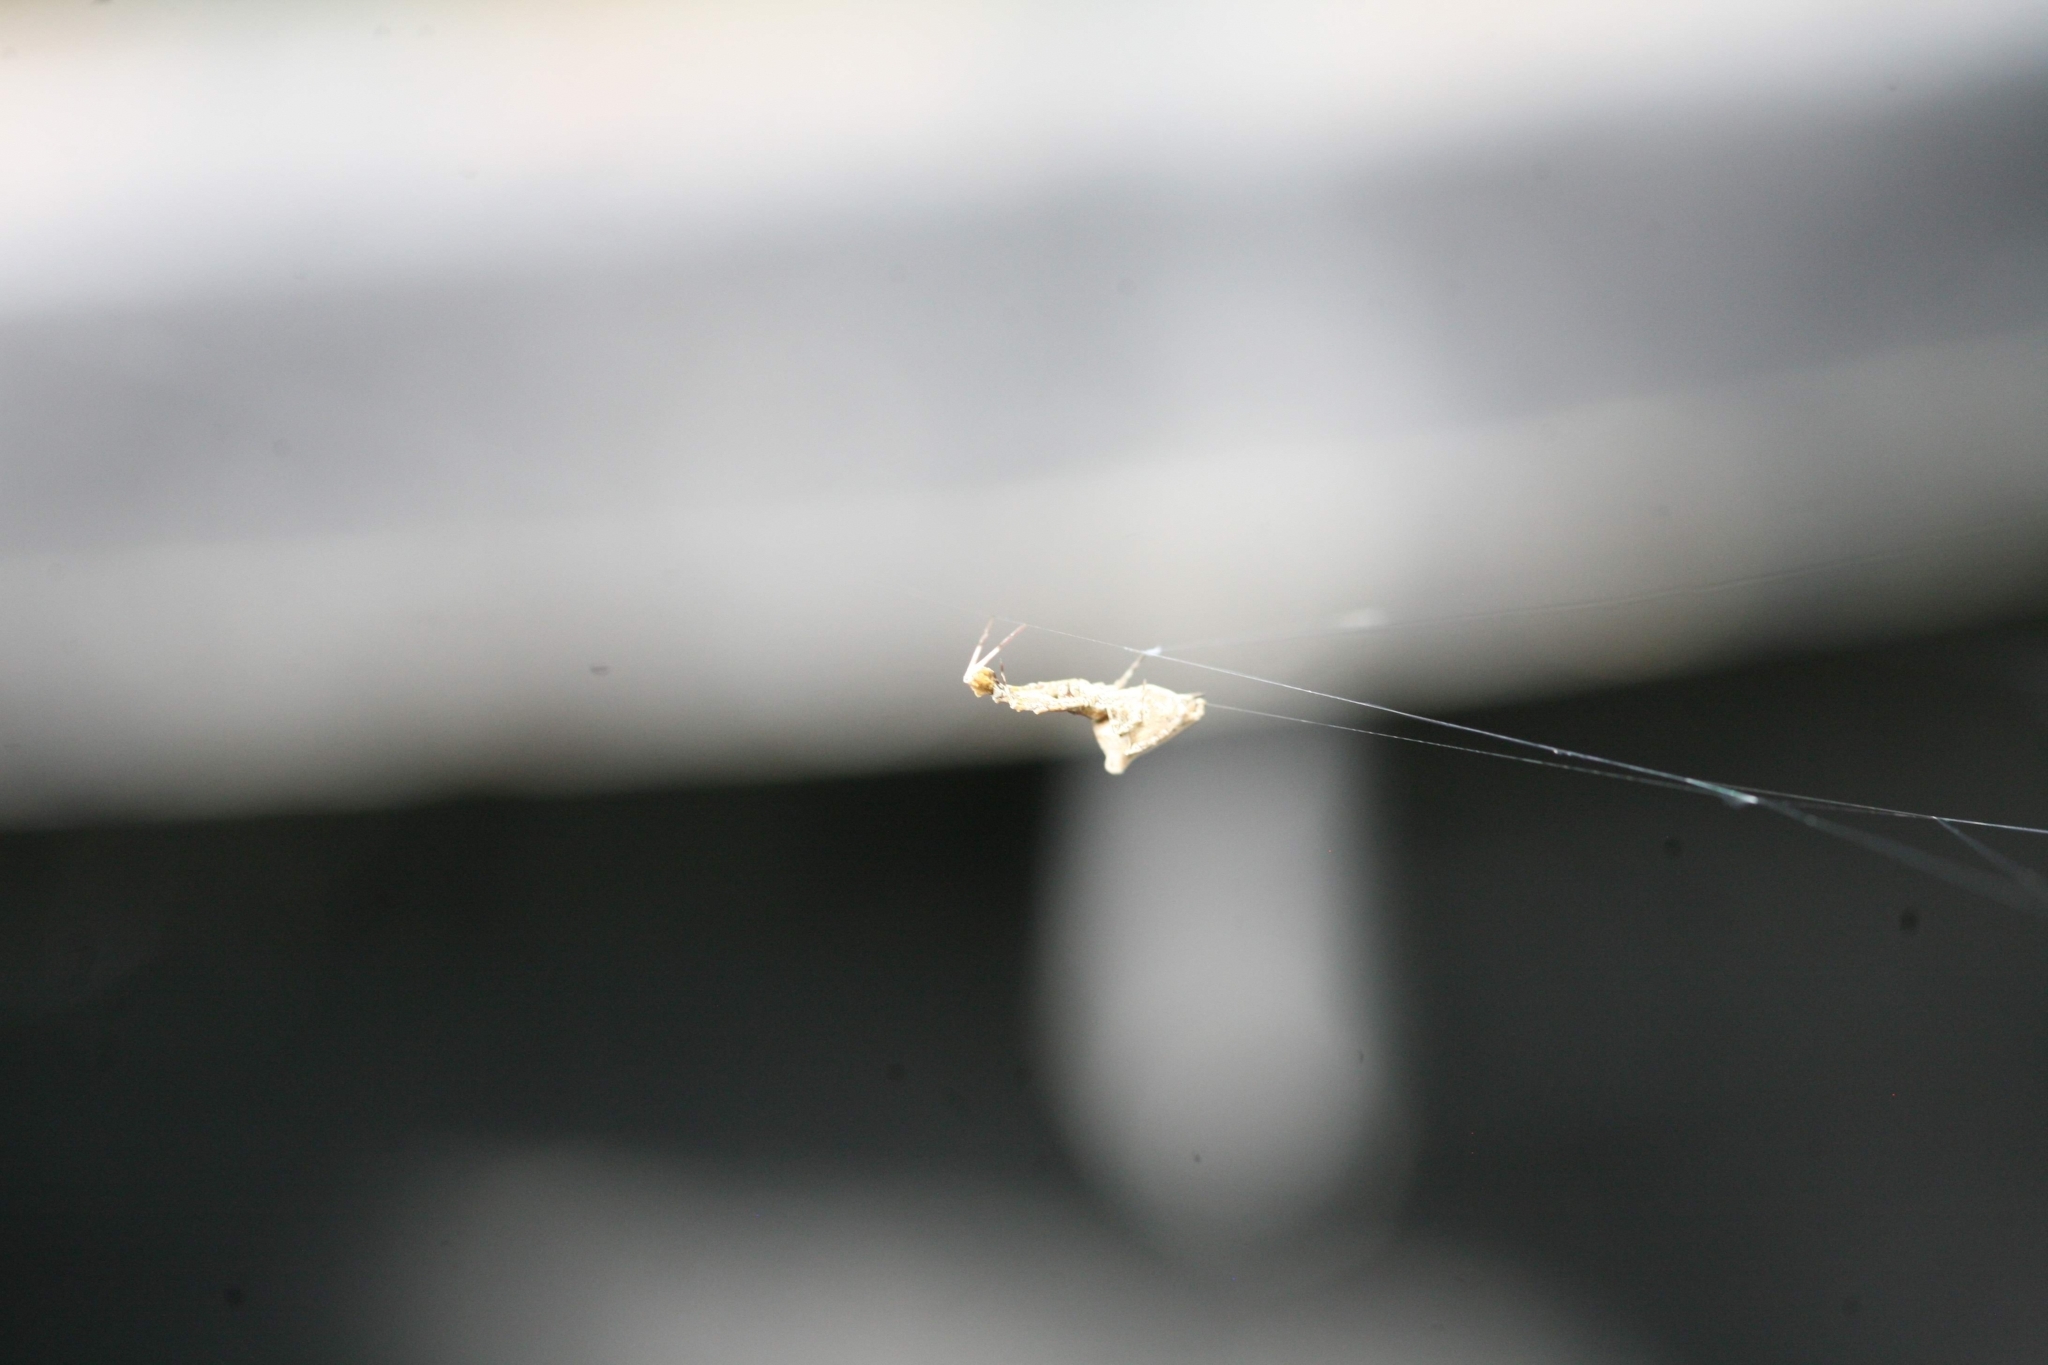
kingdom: Animalia
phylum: Arthropoda
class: Arachnida
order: Araneae
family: Uloboridae
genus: Uloborus
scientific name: Uloborus plumipes
